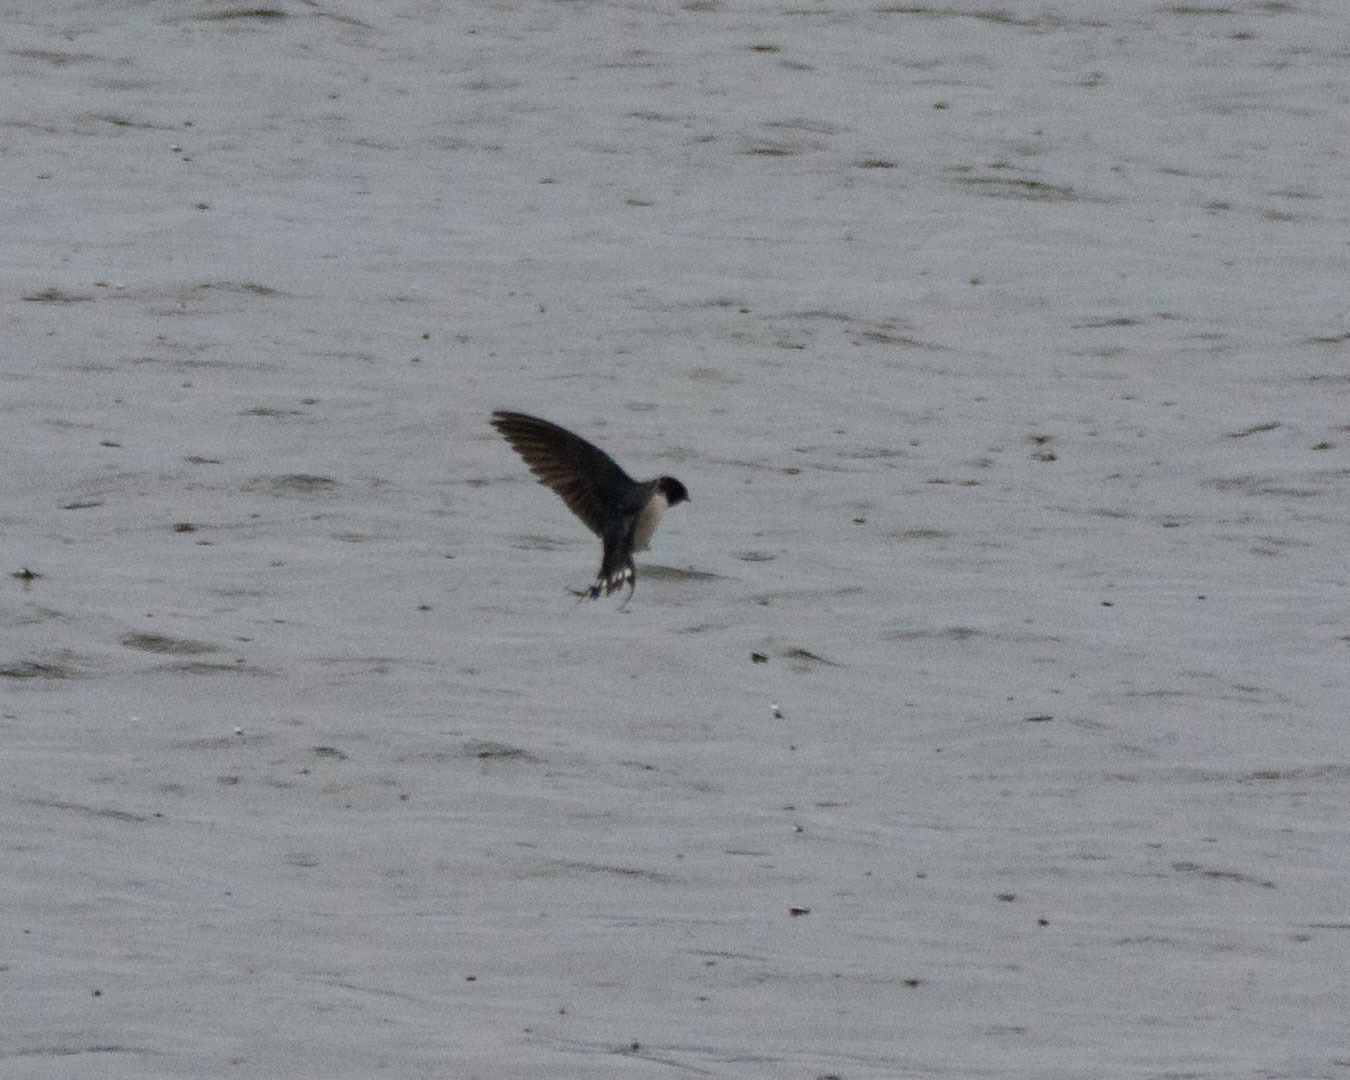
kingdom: Animalia
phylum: Chordata
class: Aves
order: Passeriformes
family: Hirundinidae
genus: Hirundo
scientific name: Hirundo rustica
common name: Barn swallow
